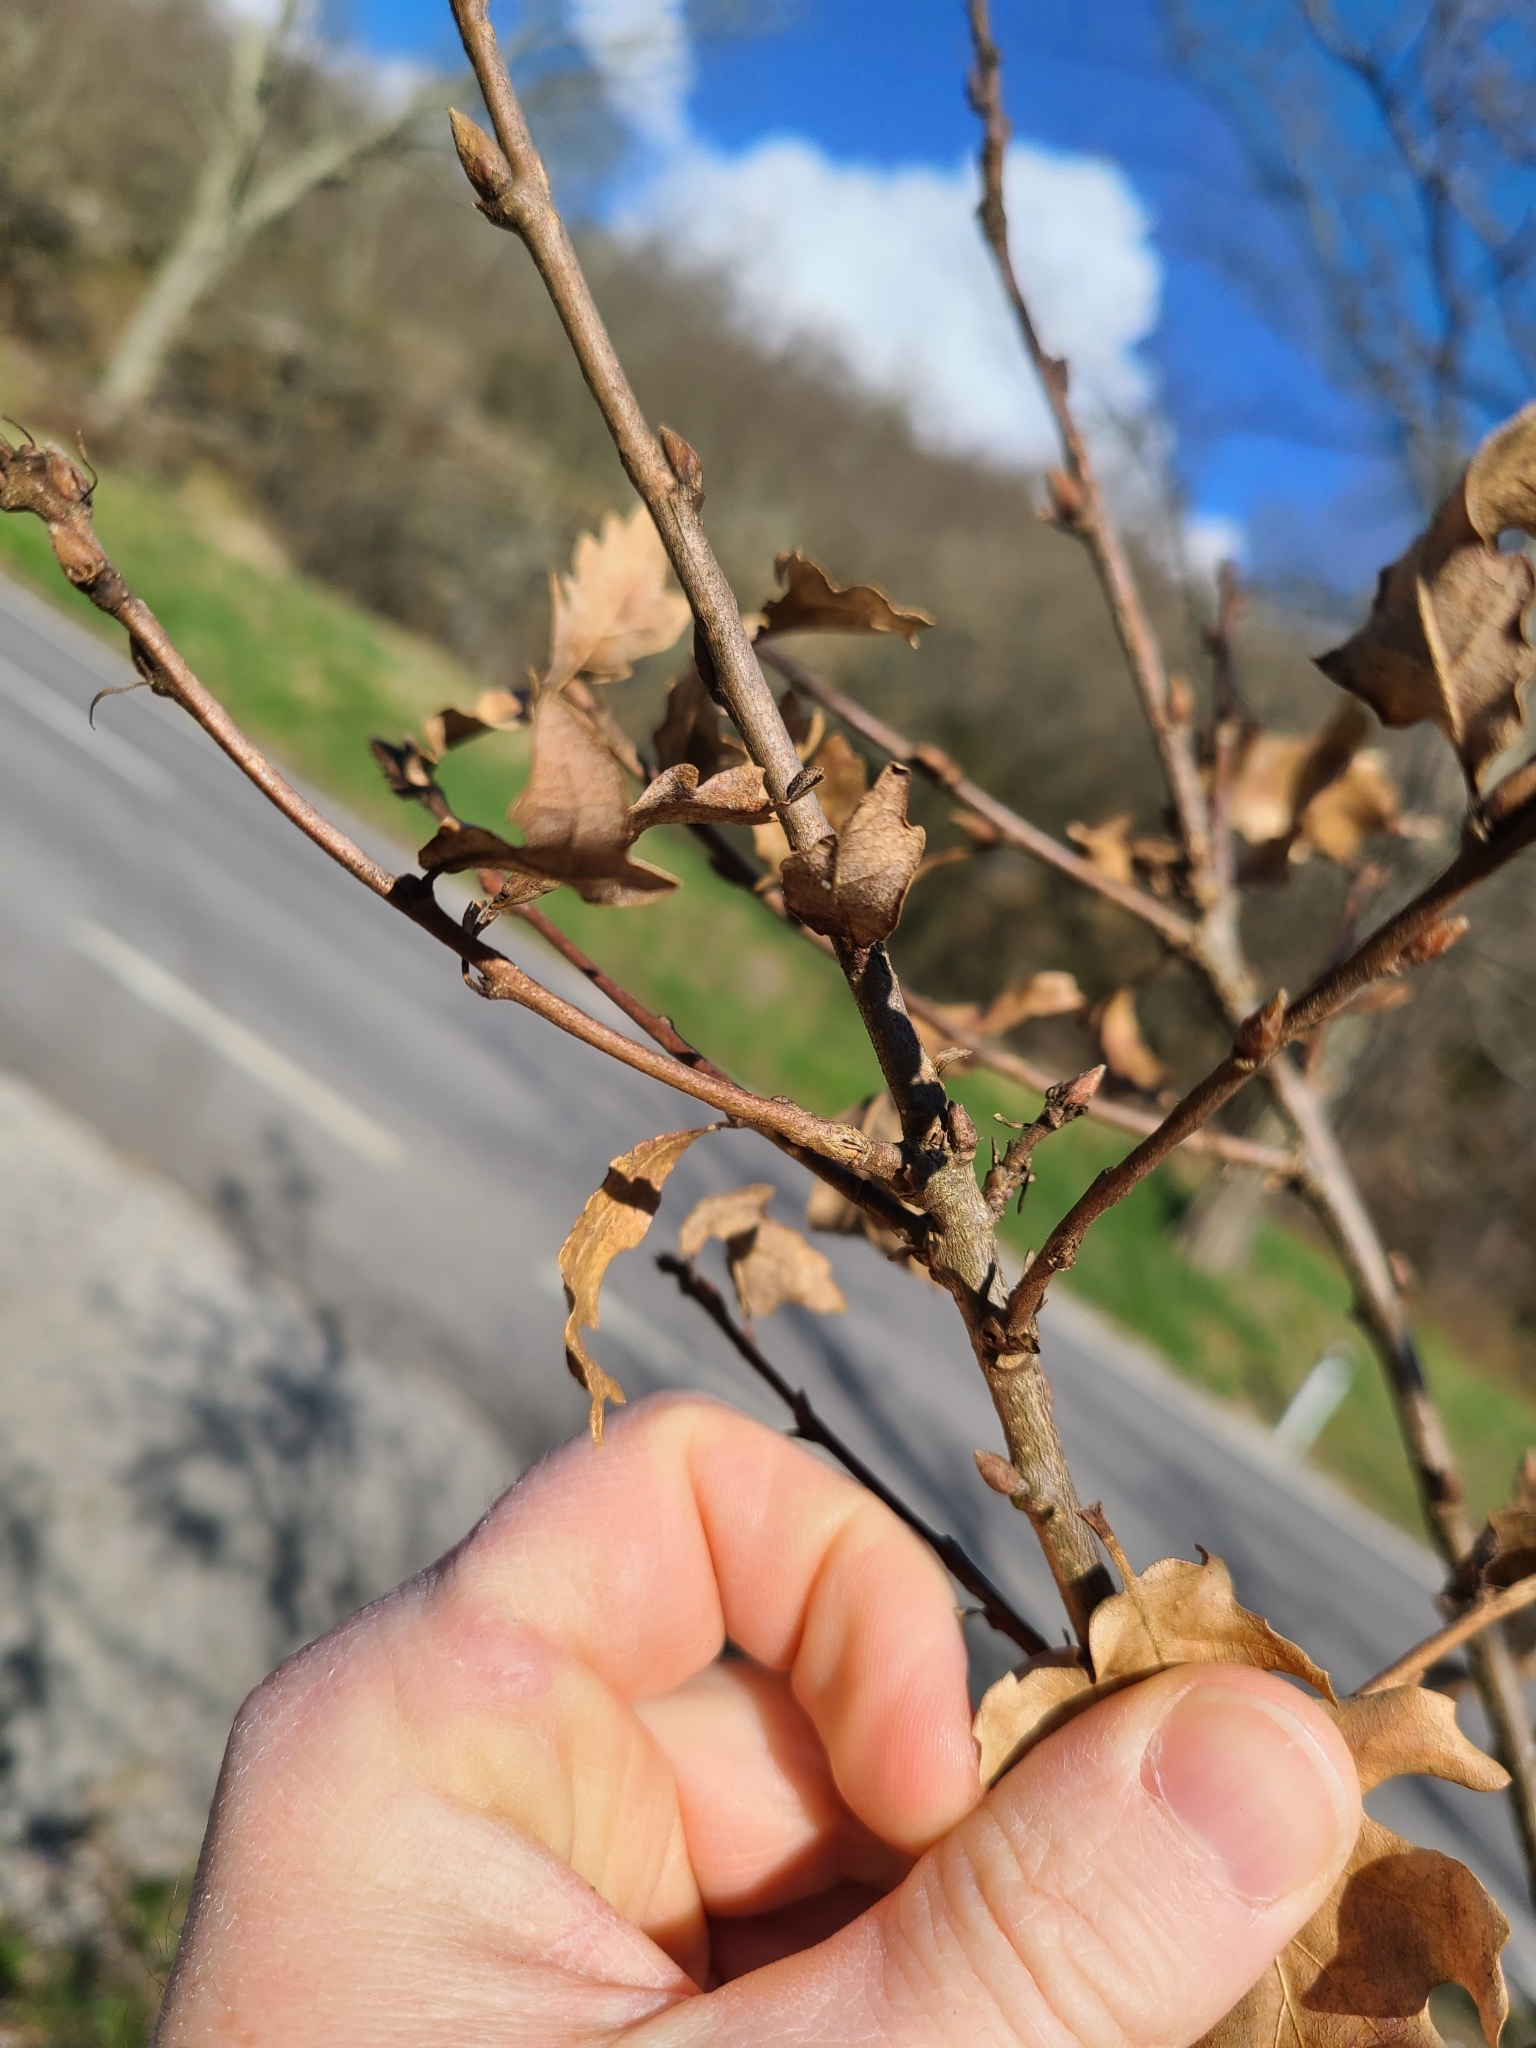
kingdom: Plantae
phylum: Tracheophyta
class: Magnoliopsida
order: Fagales
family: Fagaceae
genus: Quercus
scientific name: Quercus cerris
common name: Turkey oak
